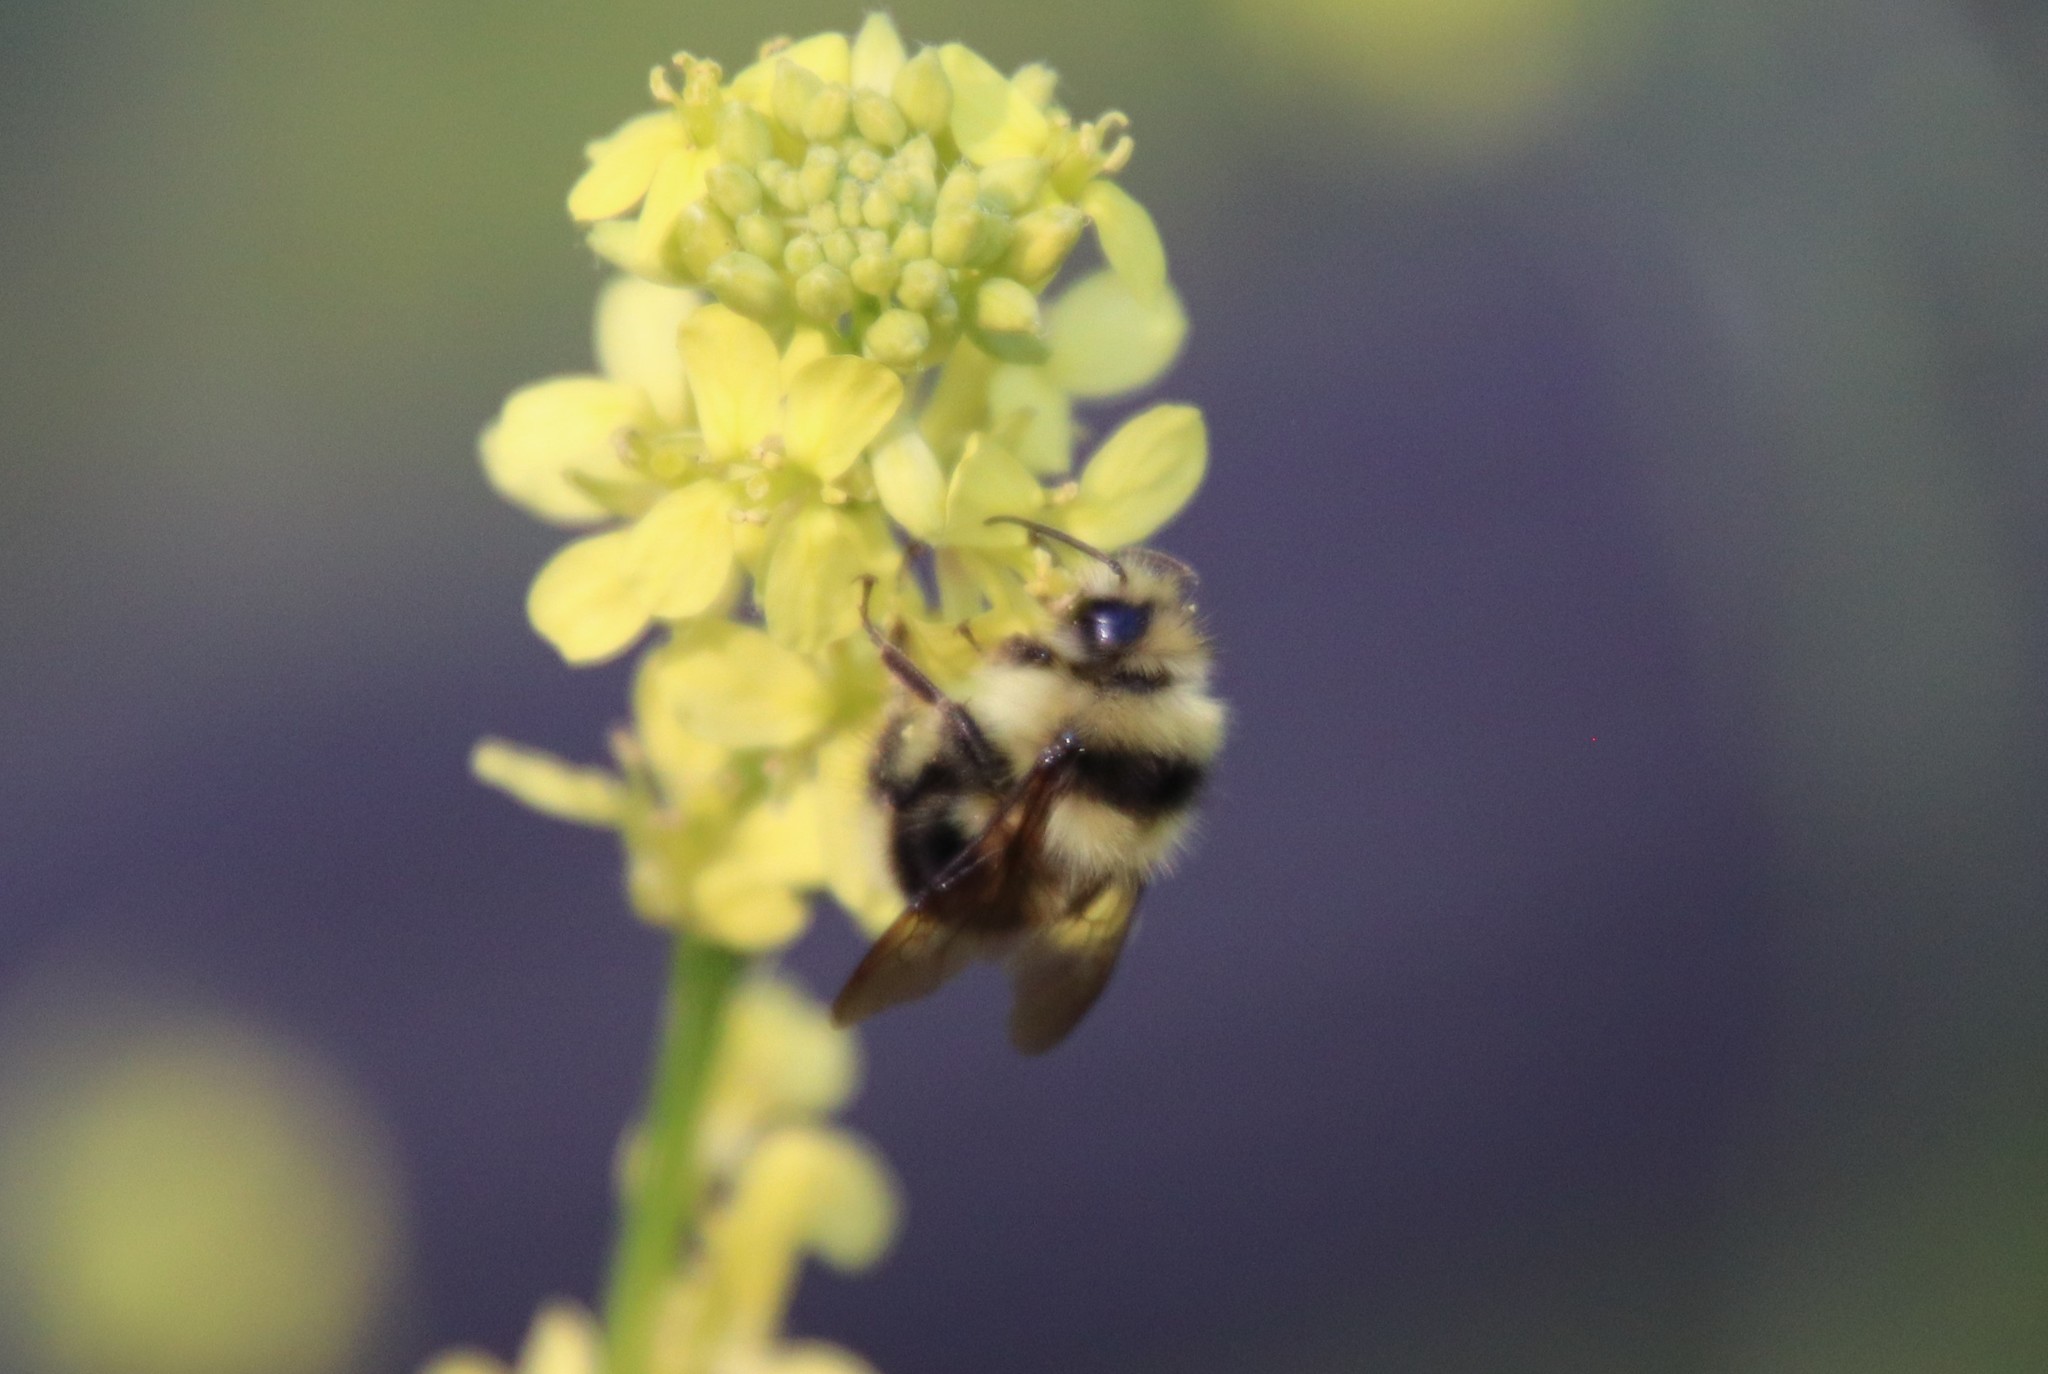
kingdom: Animalia
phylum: Arthropoda
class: Insecta
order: Hymenoptera
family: Apidae
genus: Bombus
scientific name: Bombus melanopygus
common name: Black tail bumble bee
